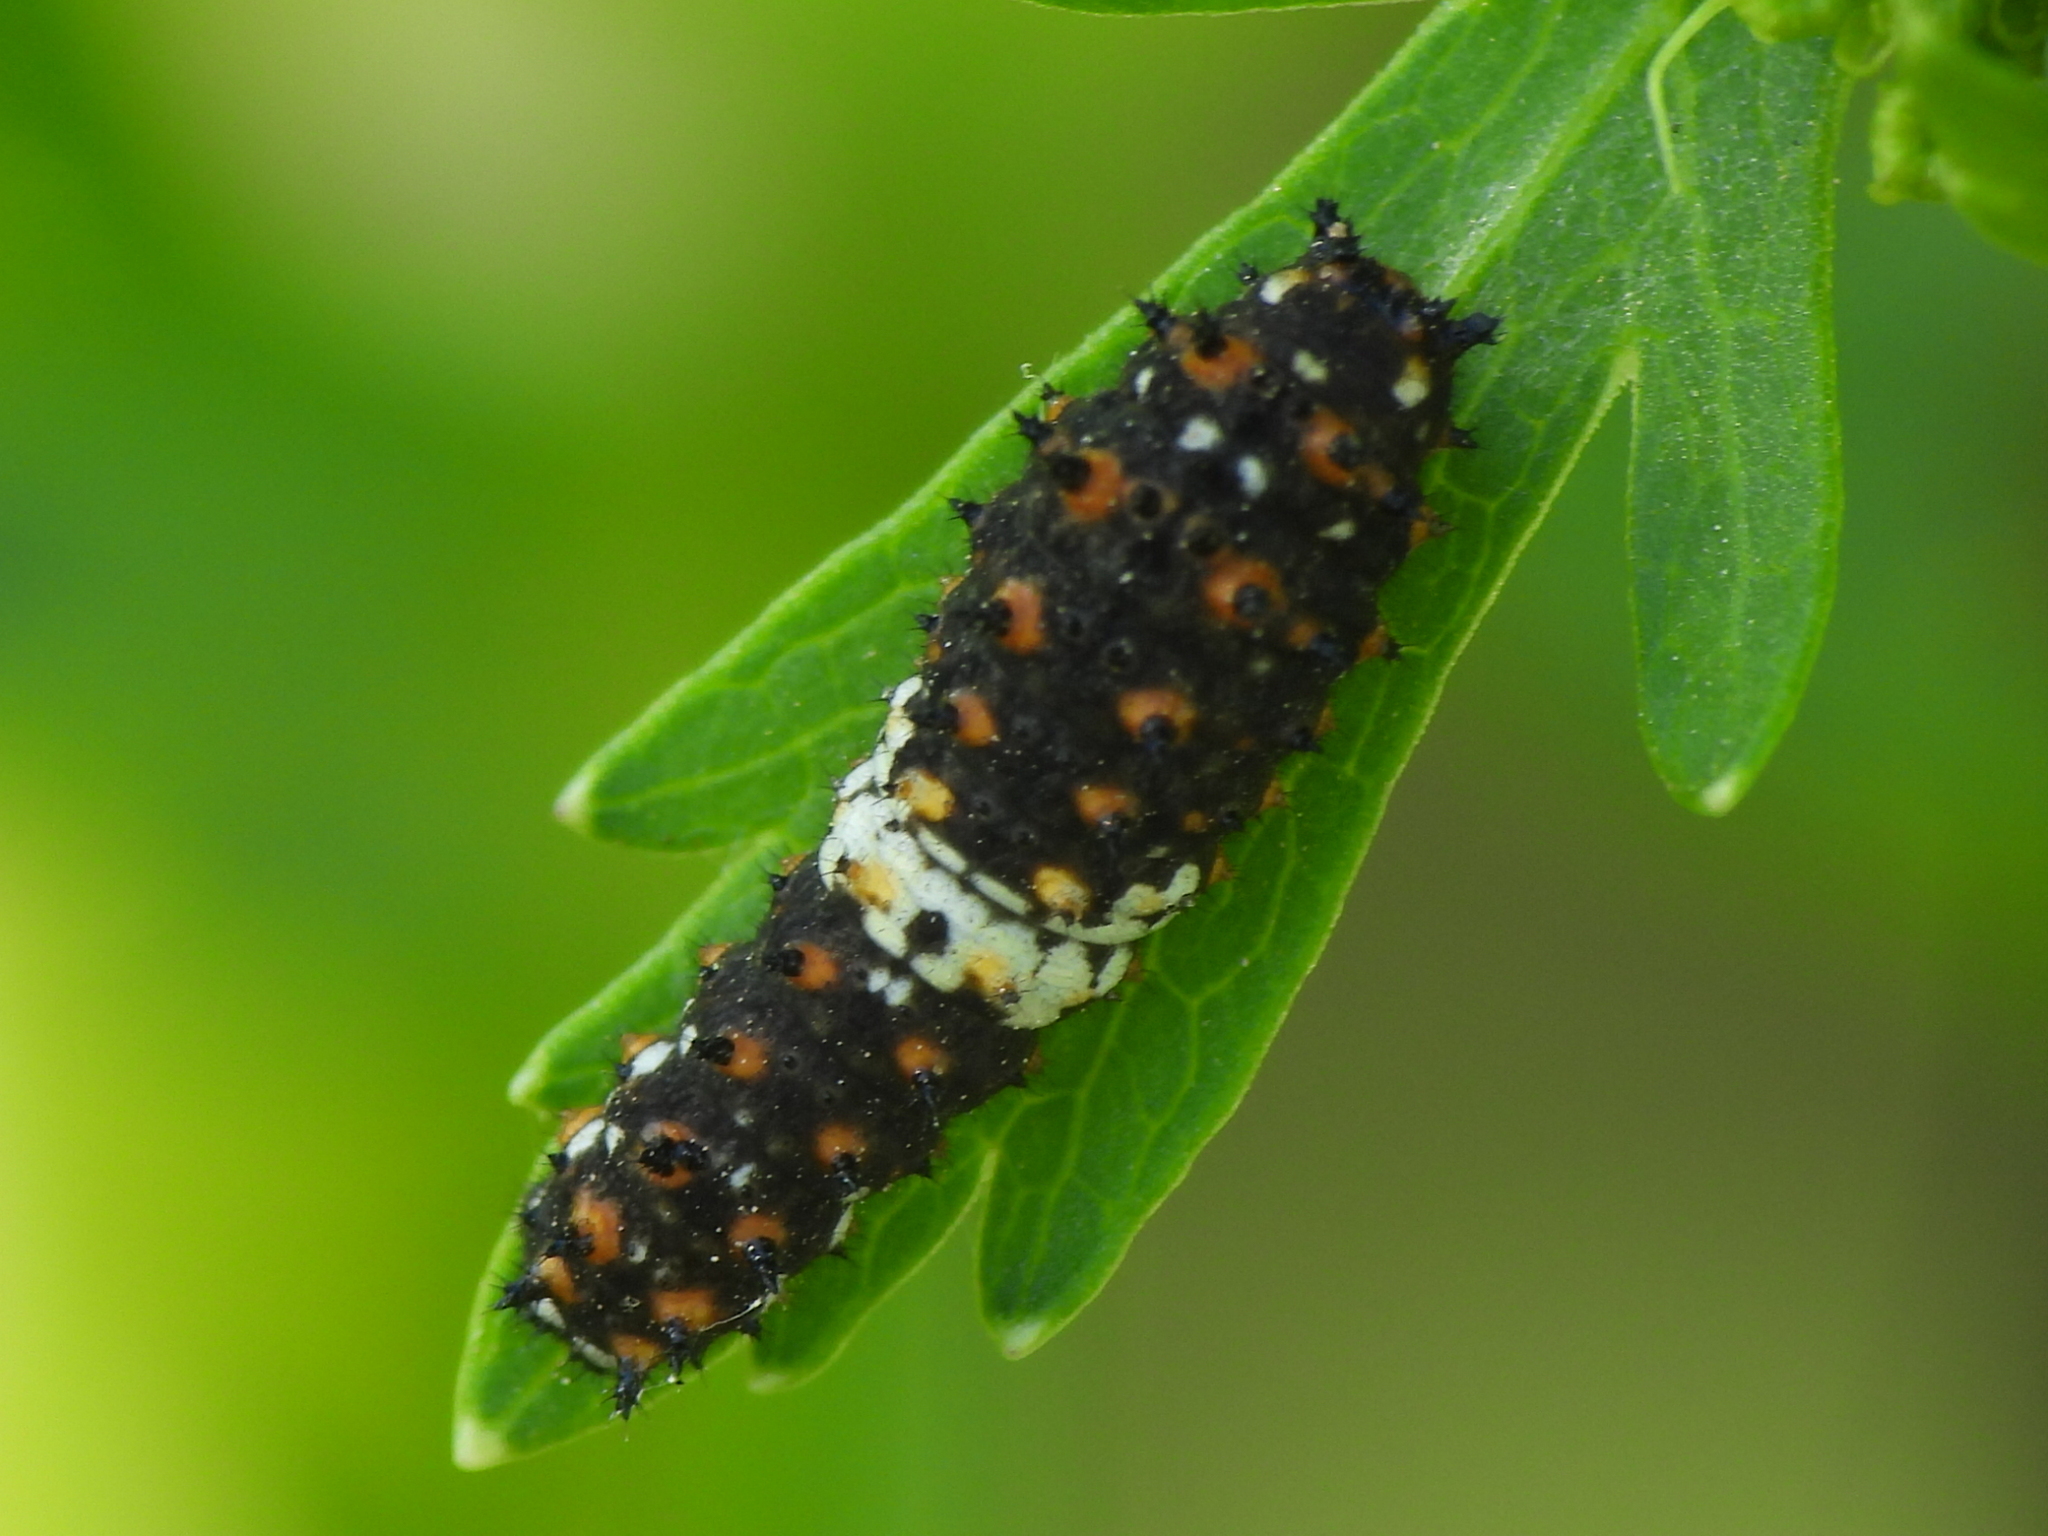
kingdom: Animalia
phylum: Arthropoda
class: Insecta
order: Lepidoptera
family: Papilionidae
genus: Papilio
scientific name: Papilio polyxenes
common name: Black swallowtail
